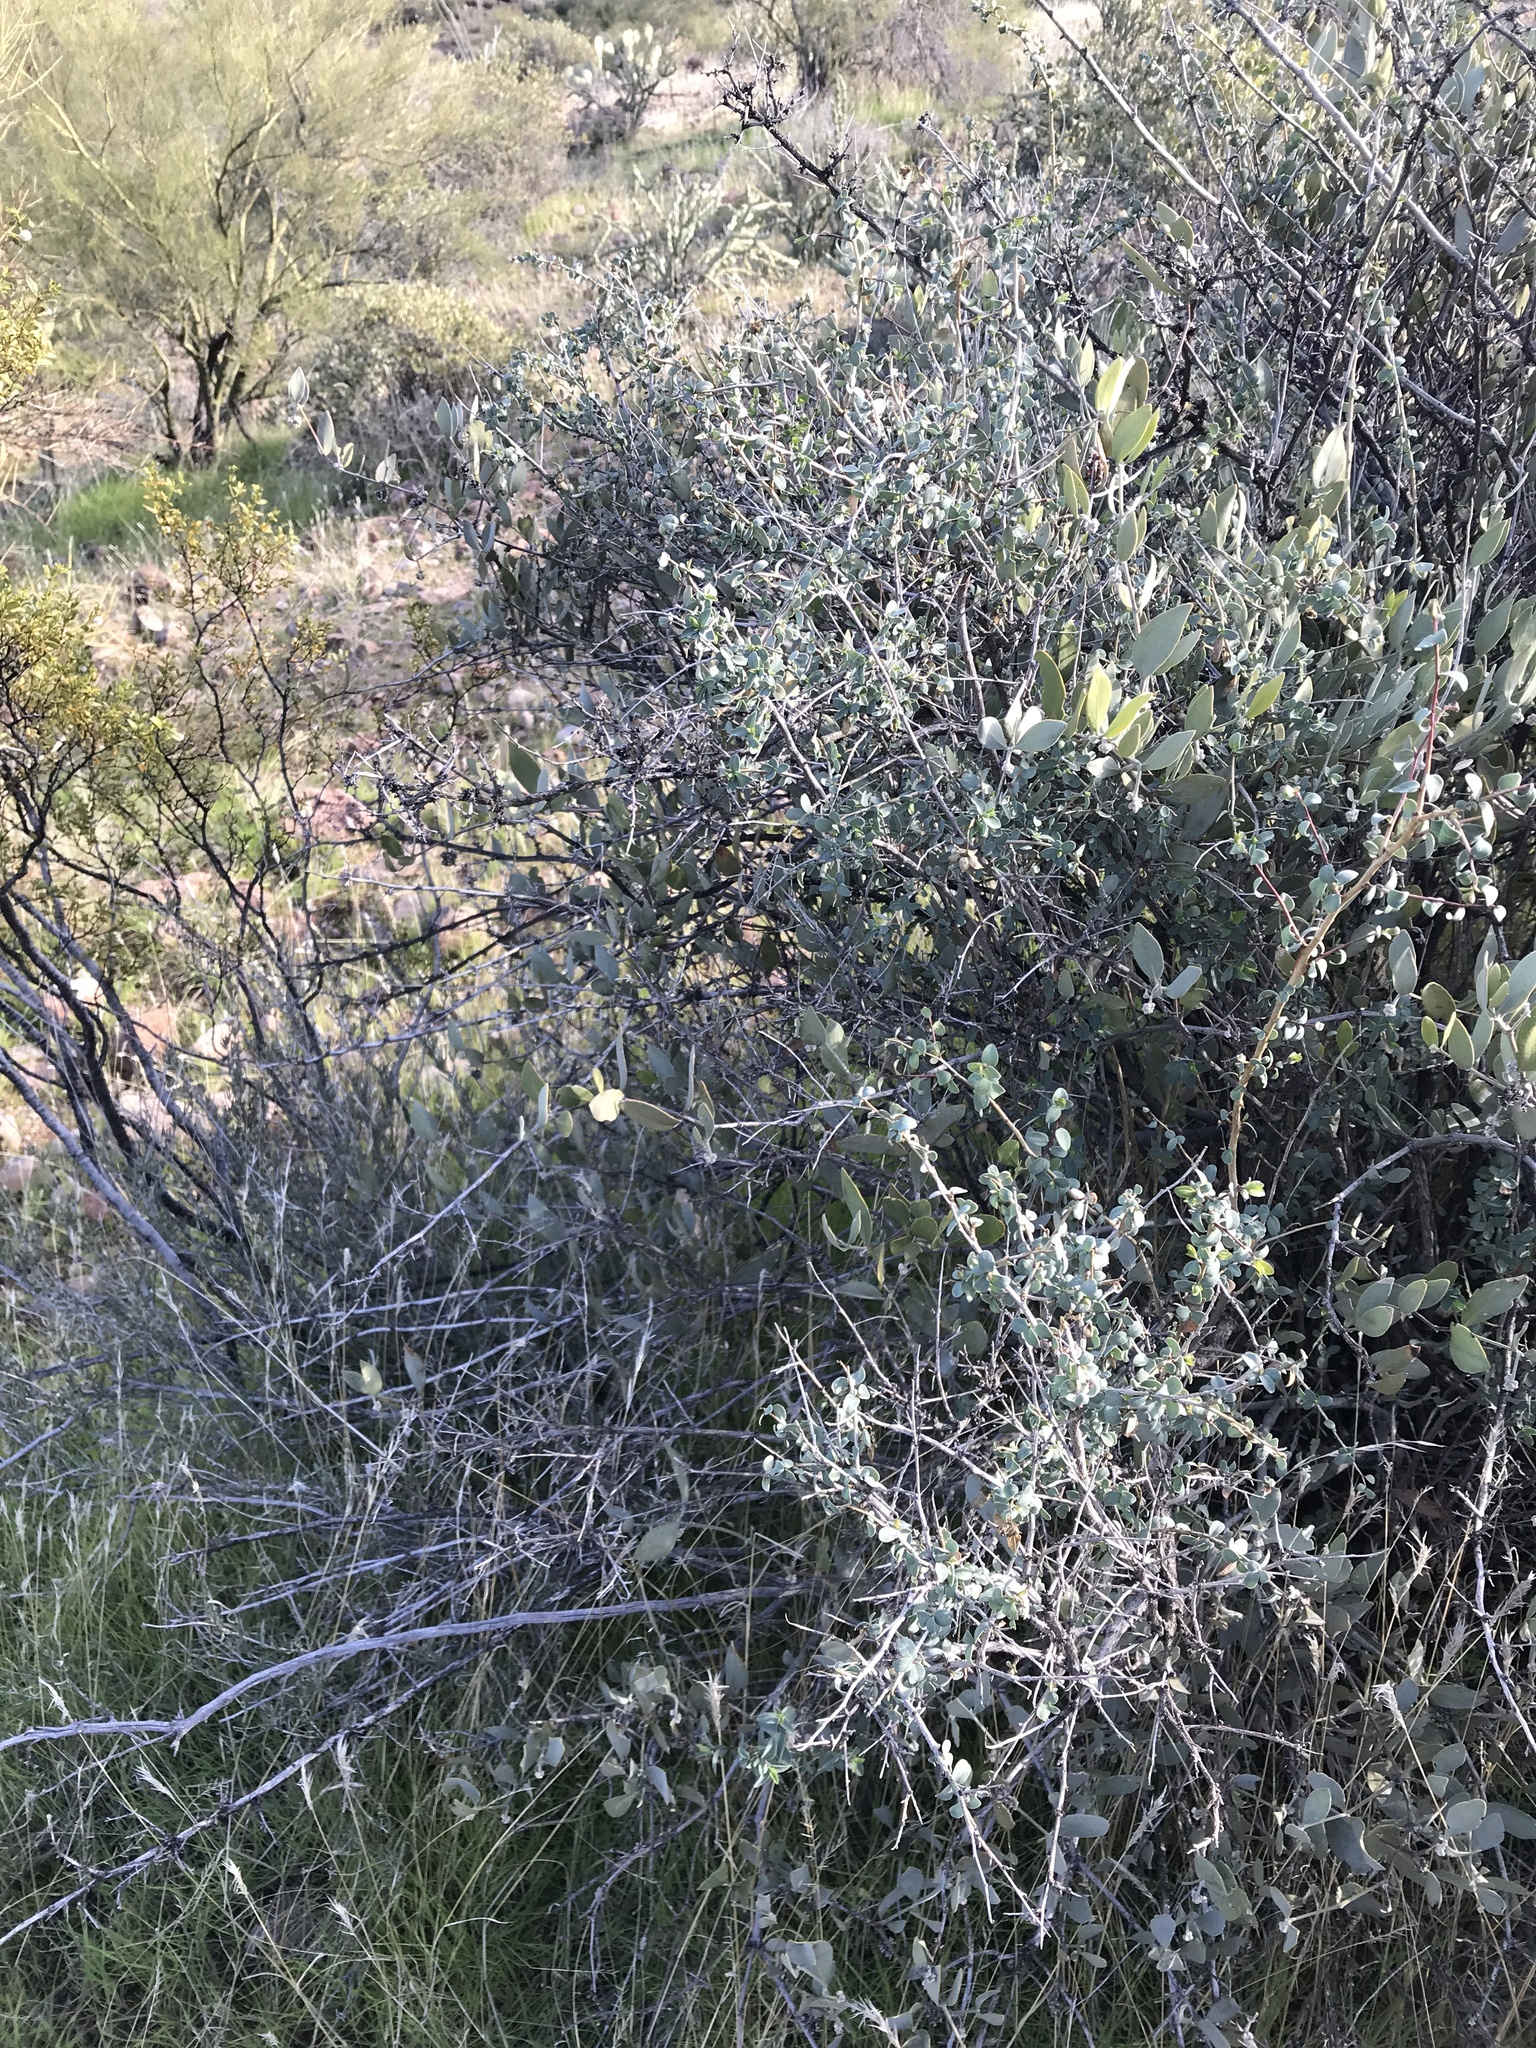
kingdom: Plantae
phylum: Tracheophyta
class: Magnoliopsida
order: Crossosomatales
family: Crossosomataceae
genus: Crossosoma
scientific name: Crossosoma bigelovii
